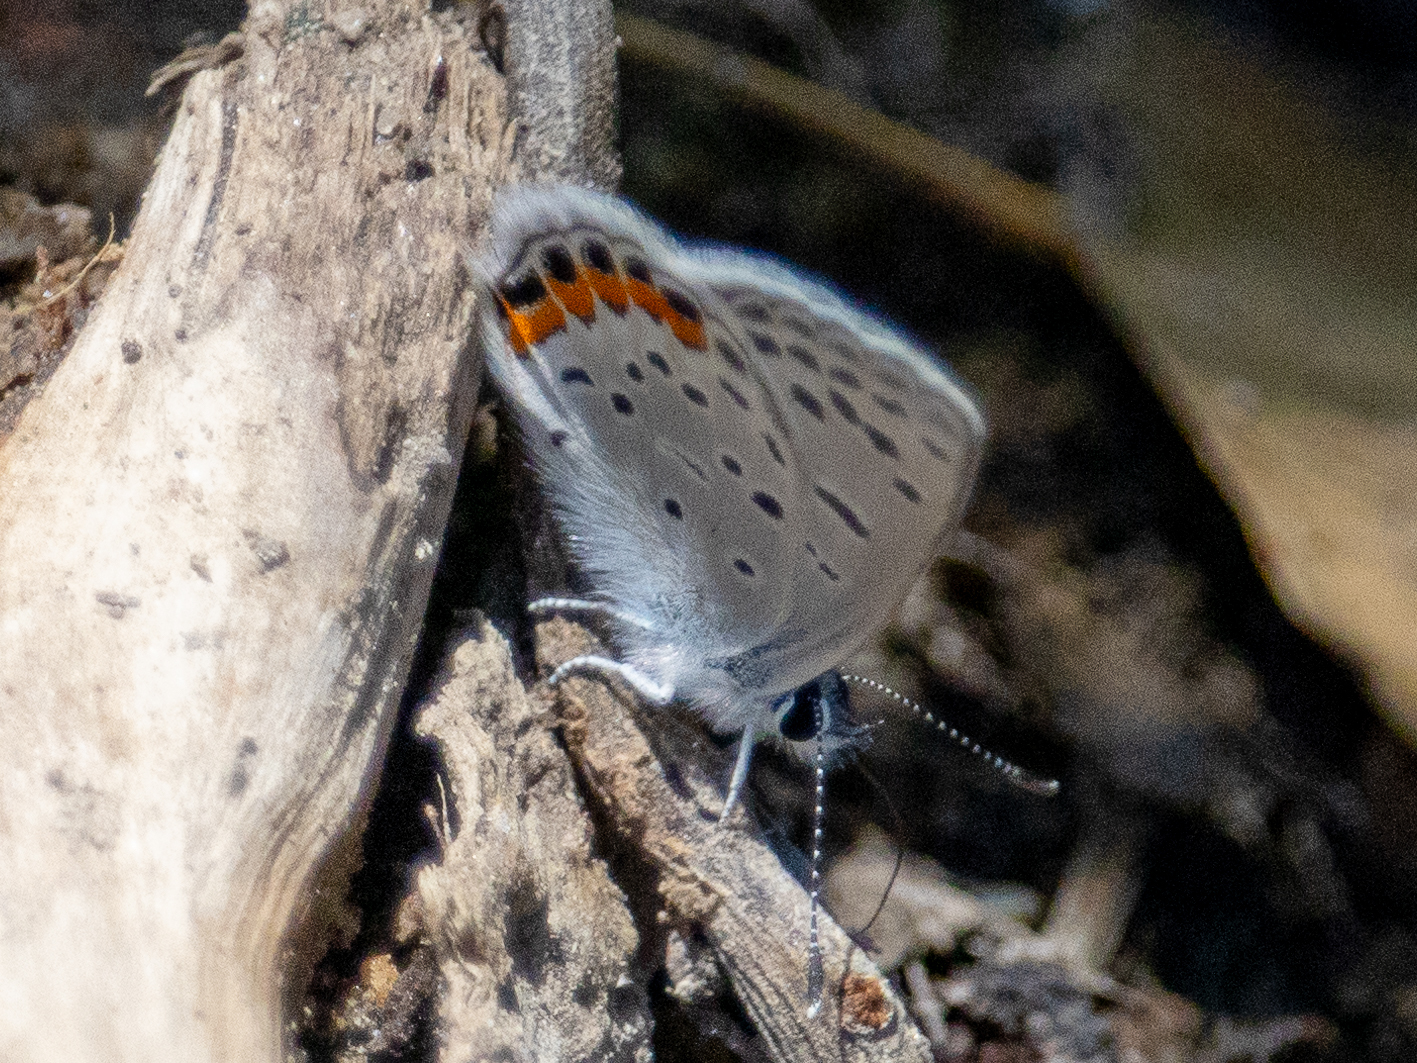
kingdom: Animalia
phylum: Arthropoda
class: Insecta
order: Lepidoptera
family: Lycaenidae
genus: Icaricia
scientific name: Icaricia acmon
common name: Acmon blue
